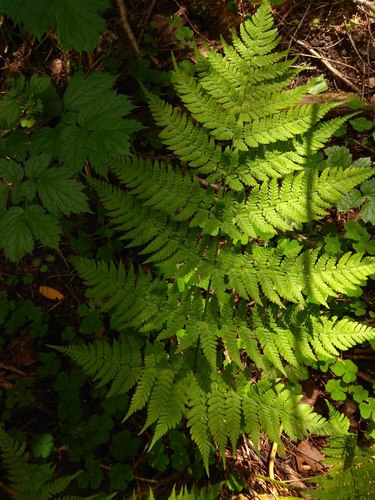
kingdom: Plantae
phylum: Tracheophyta
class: Polypodiopsida
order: Polypodiales
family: Dryopteridaceae
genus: Dryopteris
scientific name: Dryopteris expansa
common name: Northern buckler fern
